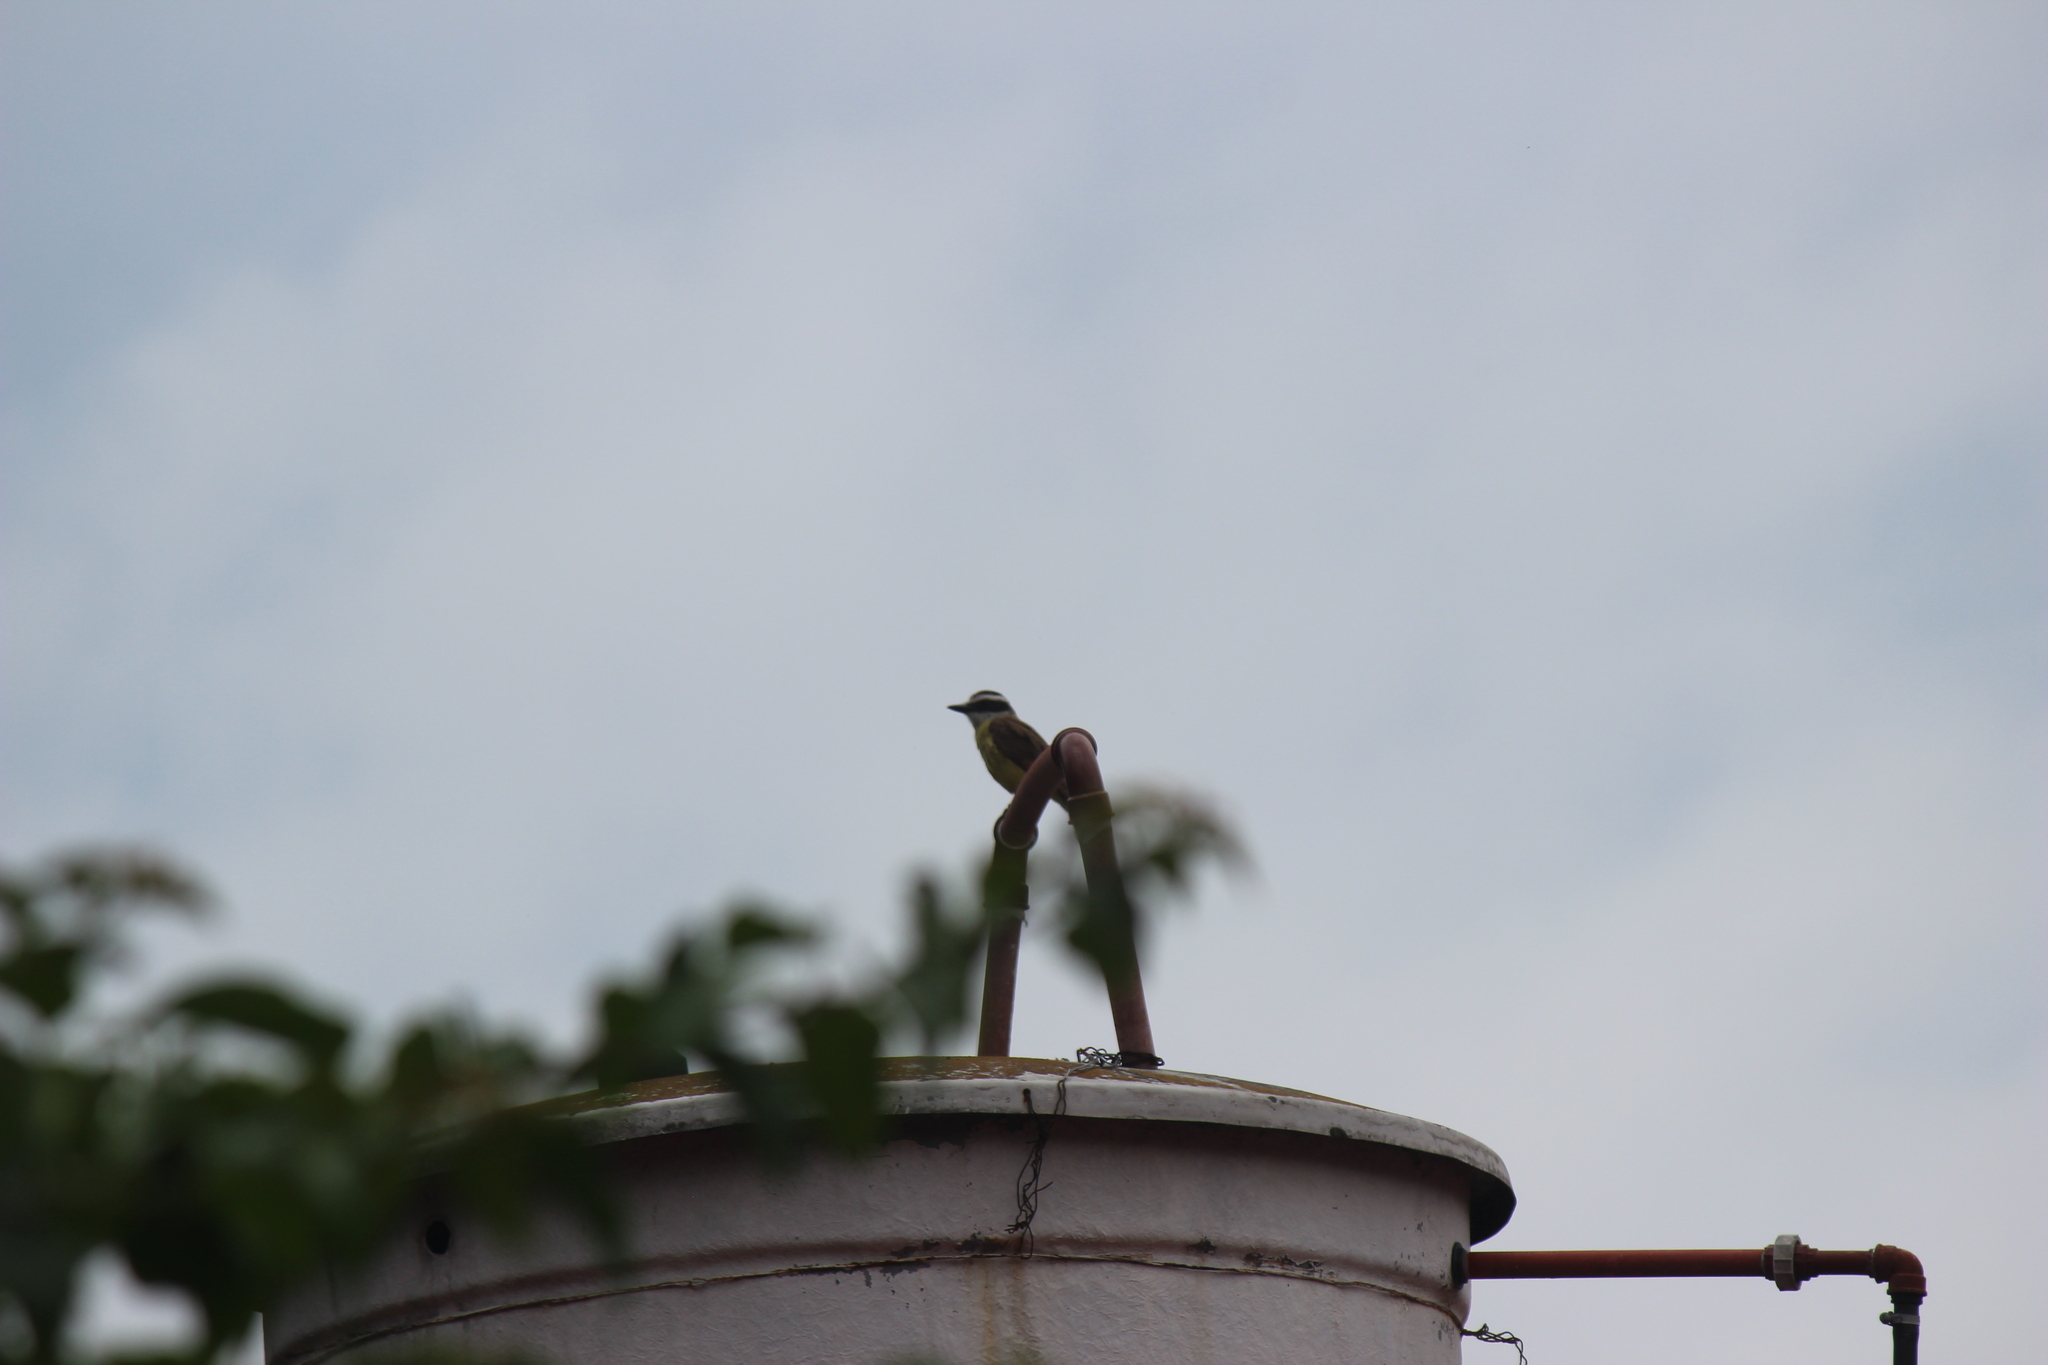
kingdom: Animalia
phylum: Chordata
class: Aves
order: Passeriformes
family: Tyrannidae
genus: Pitangus
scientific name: Pitangus sulphuratus
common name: Great kiskadee
